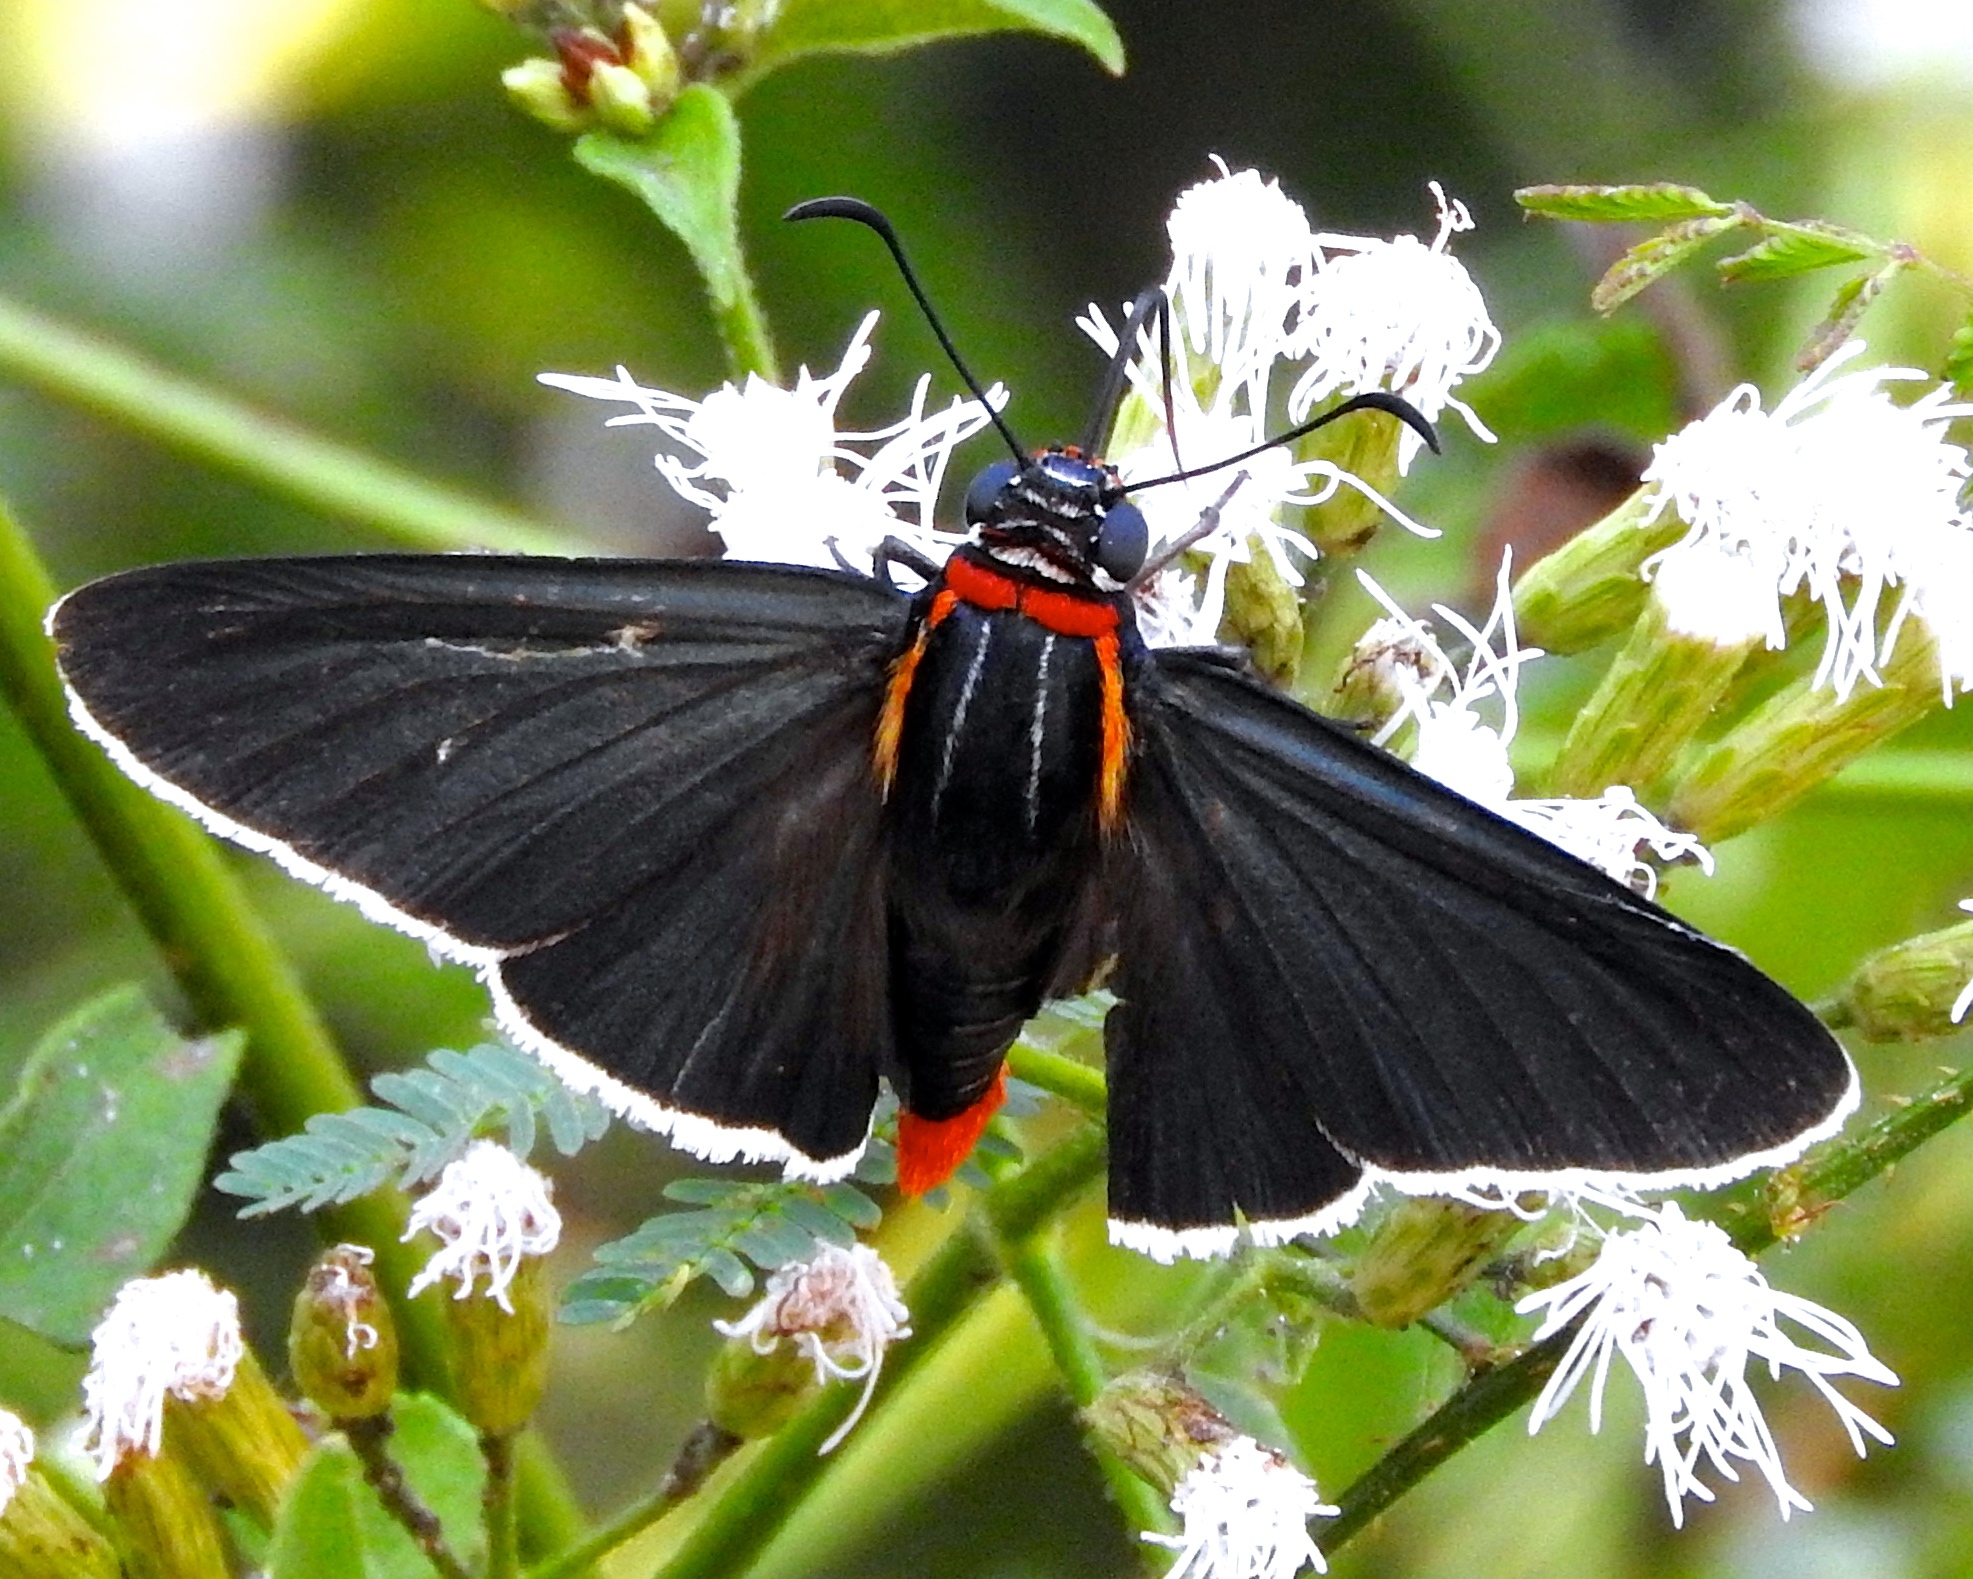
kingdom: Animalia
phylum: Arthropoda
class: Insecta
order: Lepidoptera
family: Hesperiidae
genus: Elbella
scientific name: Elbella scylla
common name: Scylla firetip
